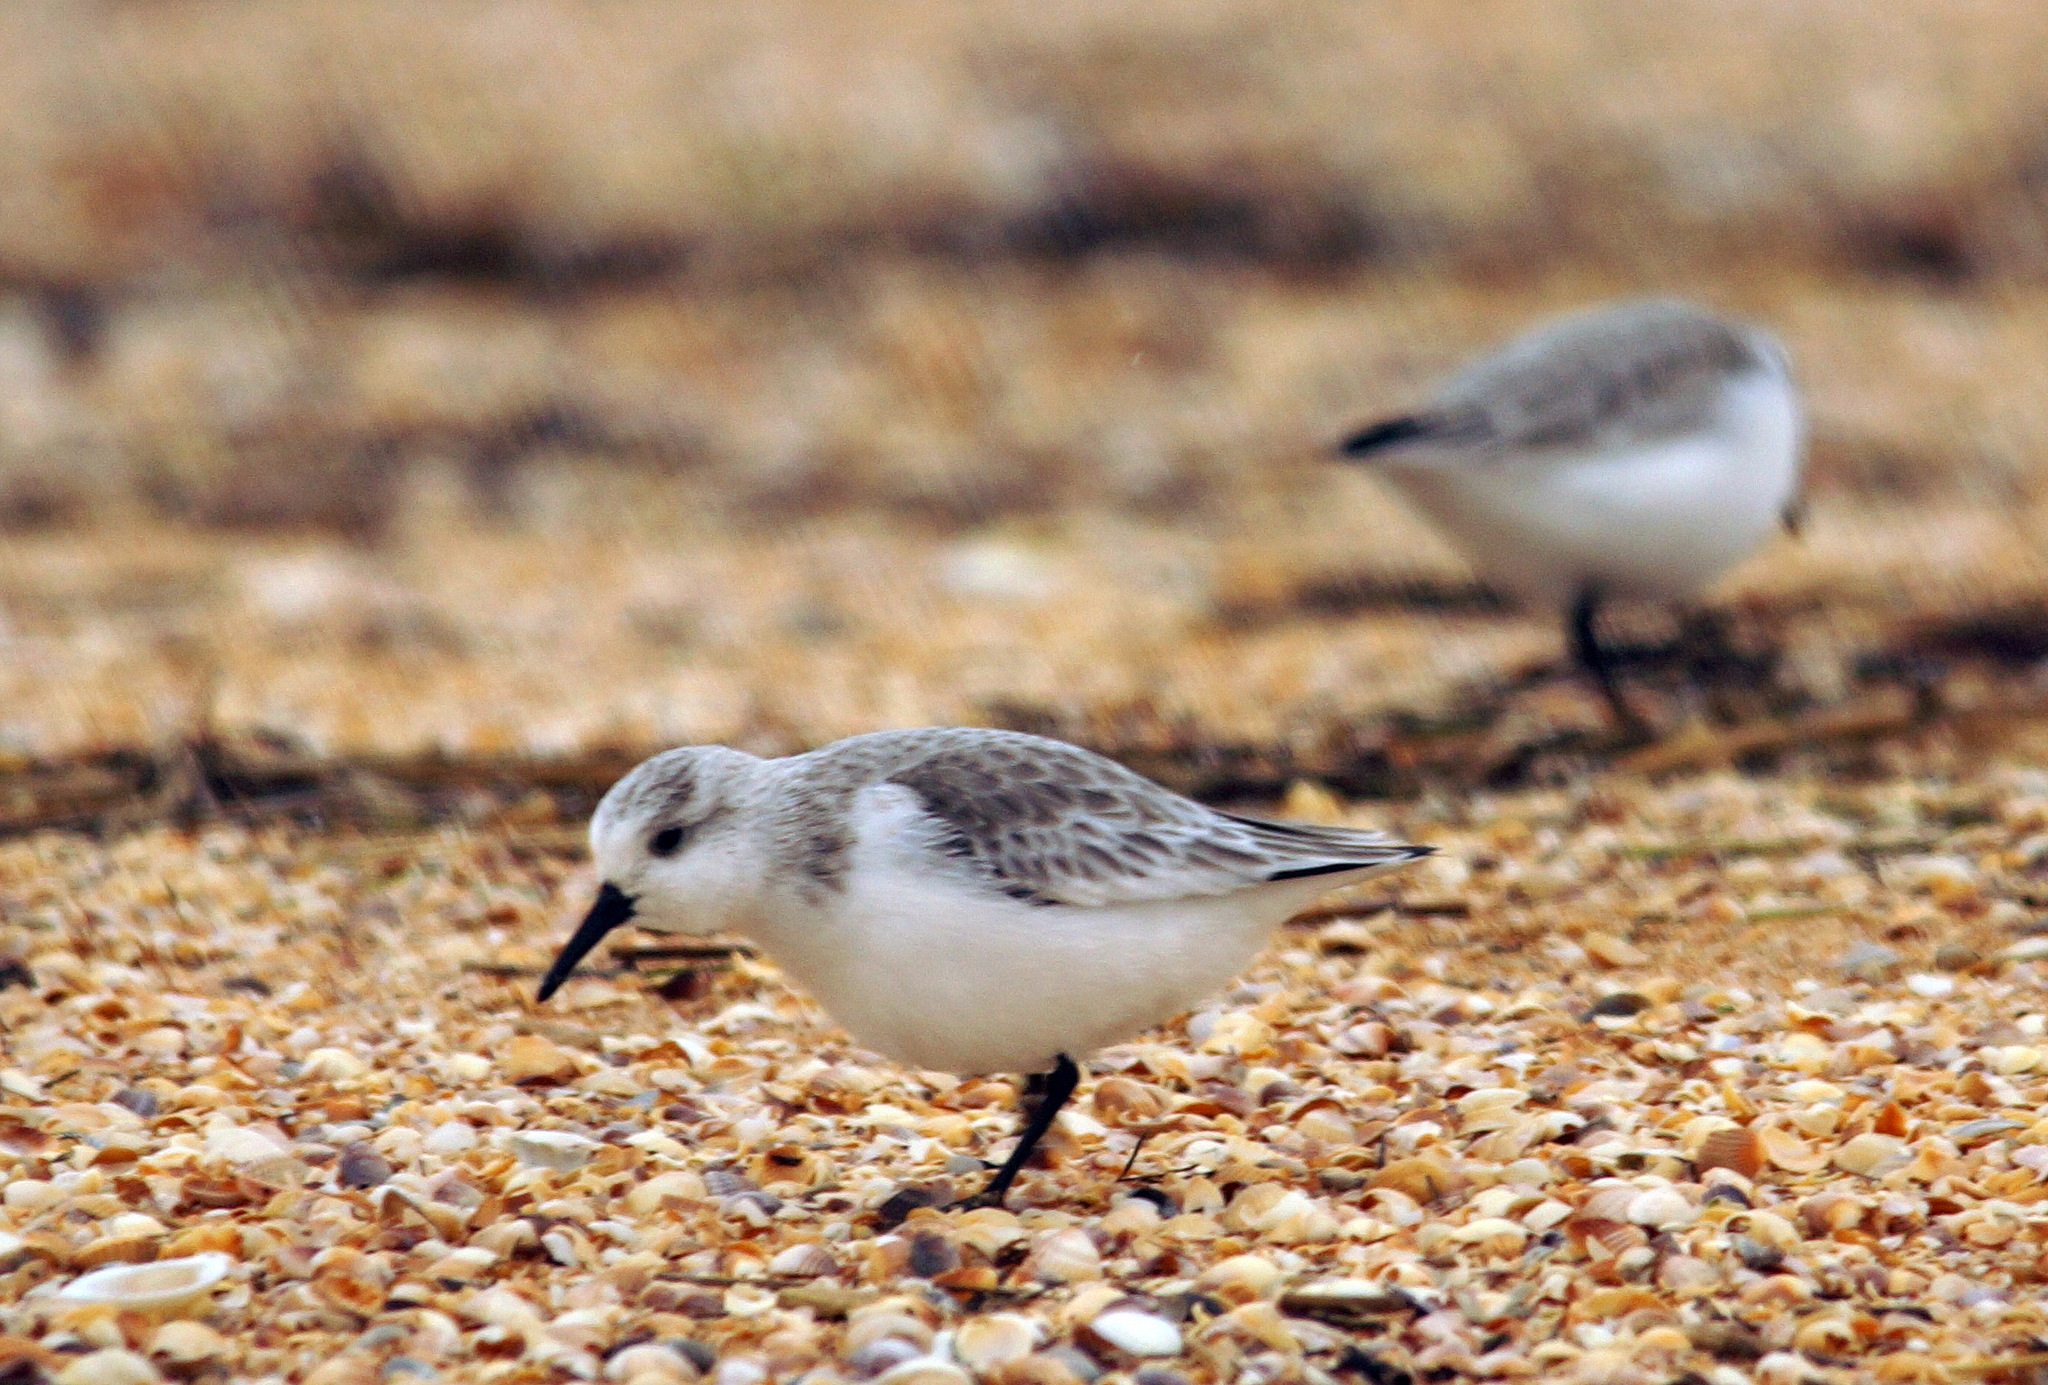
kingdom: Animalia
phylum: Chordata
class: Aves
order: Charadriiformes
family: Scolopacidae
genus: Calidris
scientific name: Calidris alba
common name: Sanderling
